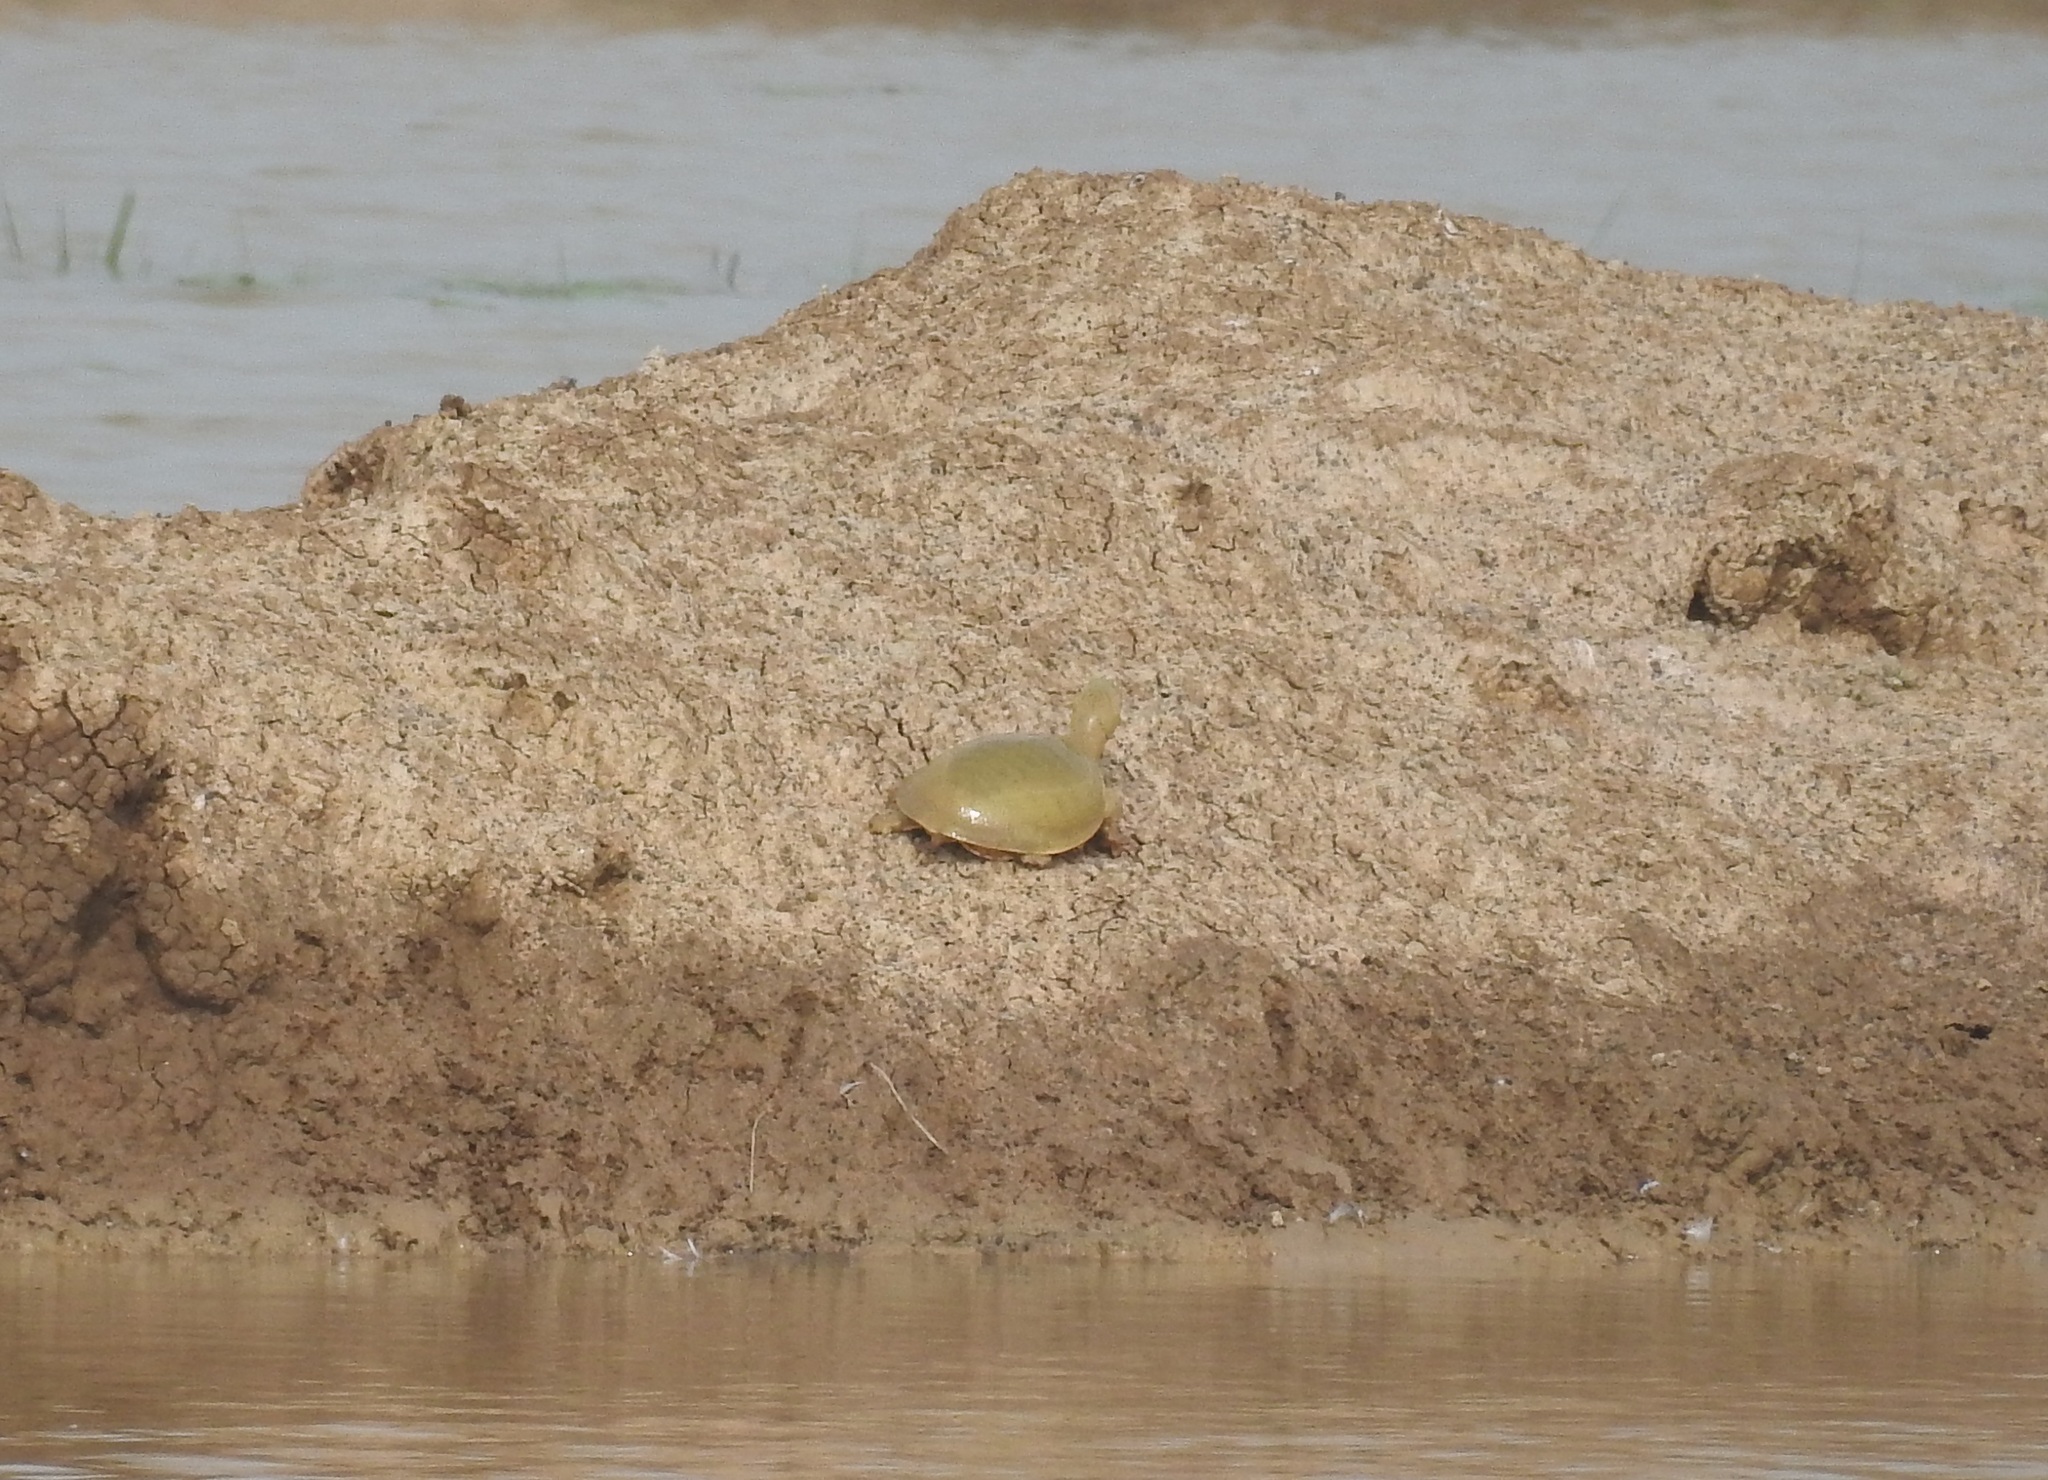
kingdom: Animalia
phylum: Chordata
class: Testudines
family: Trionychidae
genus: Lissemys
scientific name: Lissemys punctata
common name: Indian flap-shelled turtle
